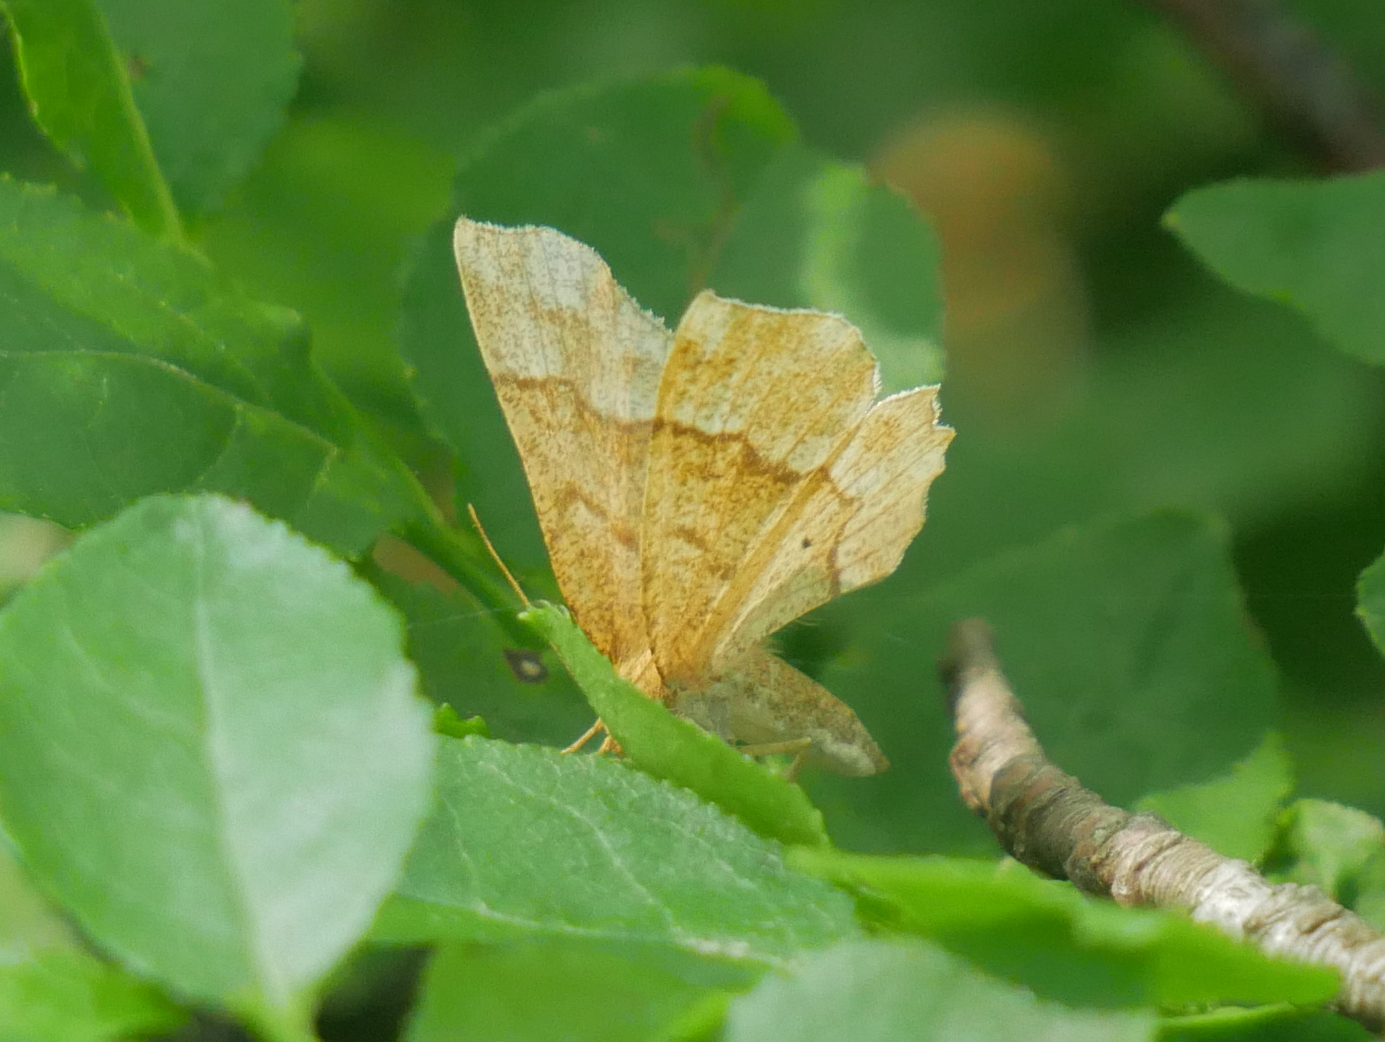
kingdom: Animalia
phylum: Arthropoda
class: Insecta
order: Lepidoptera
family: Geometridae
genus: Cepphis
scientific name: Cepphis advenaria
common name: Little thorn
